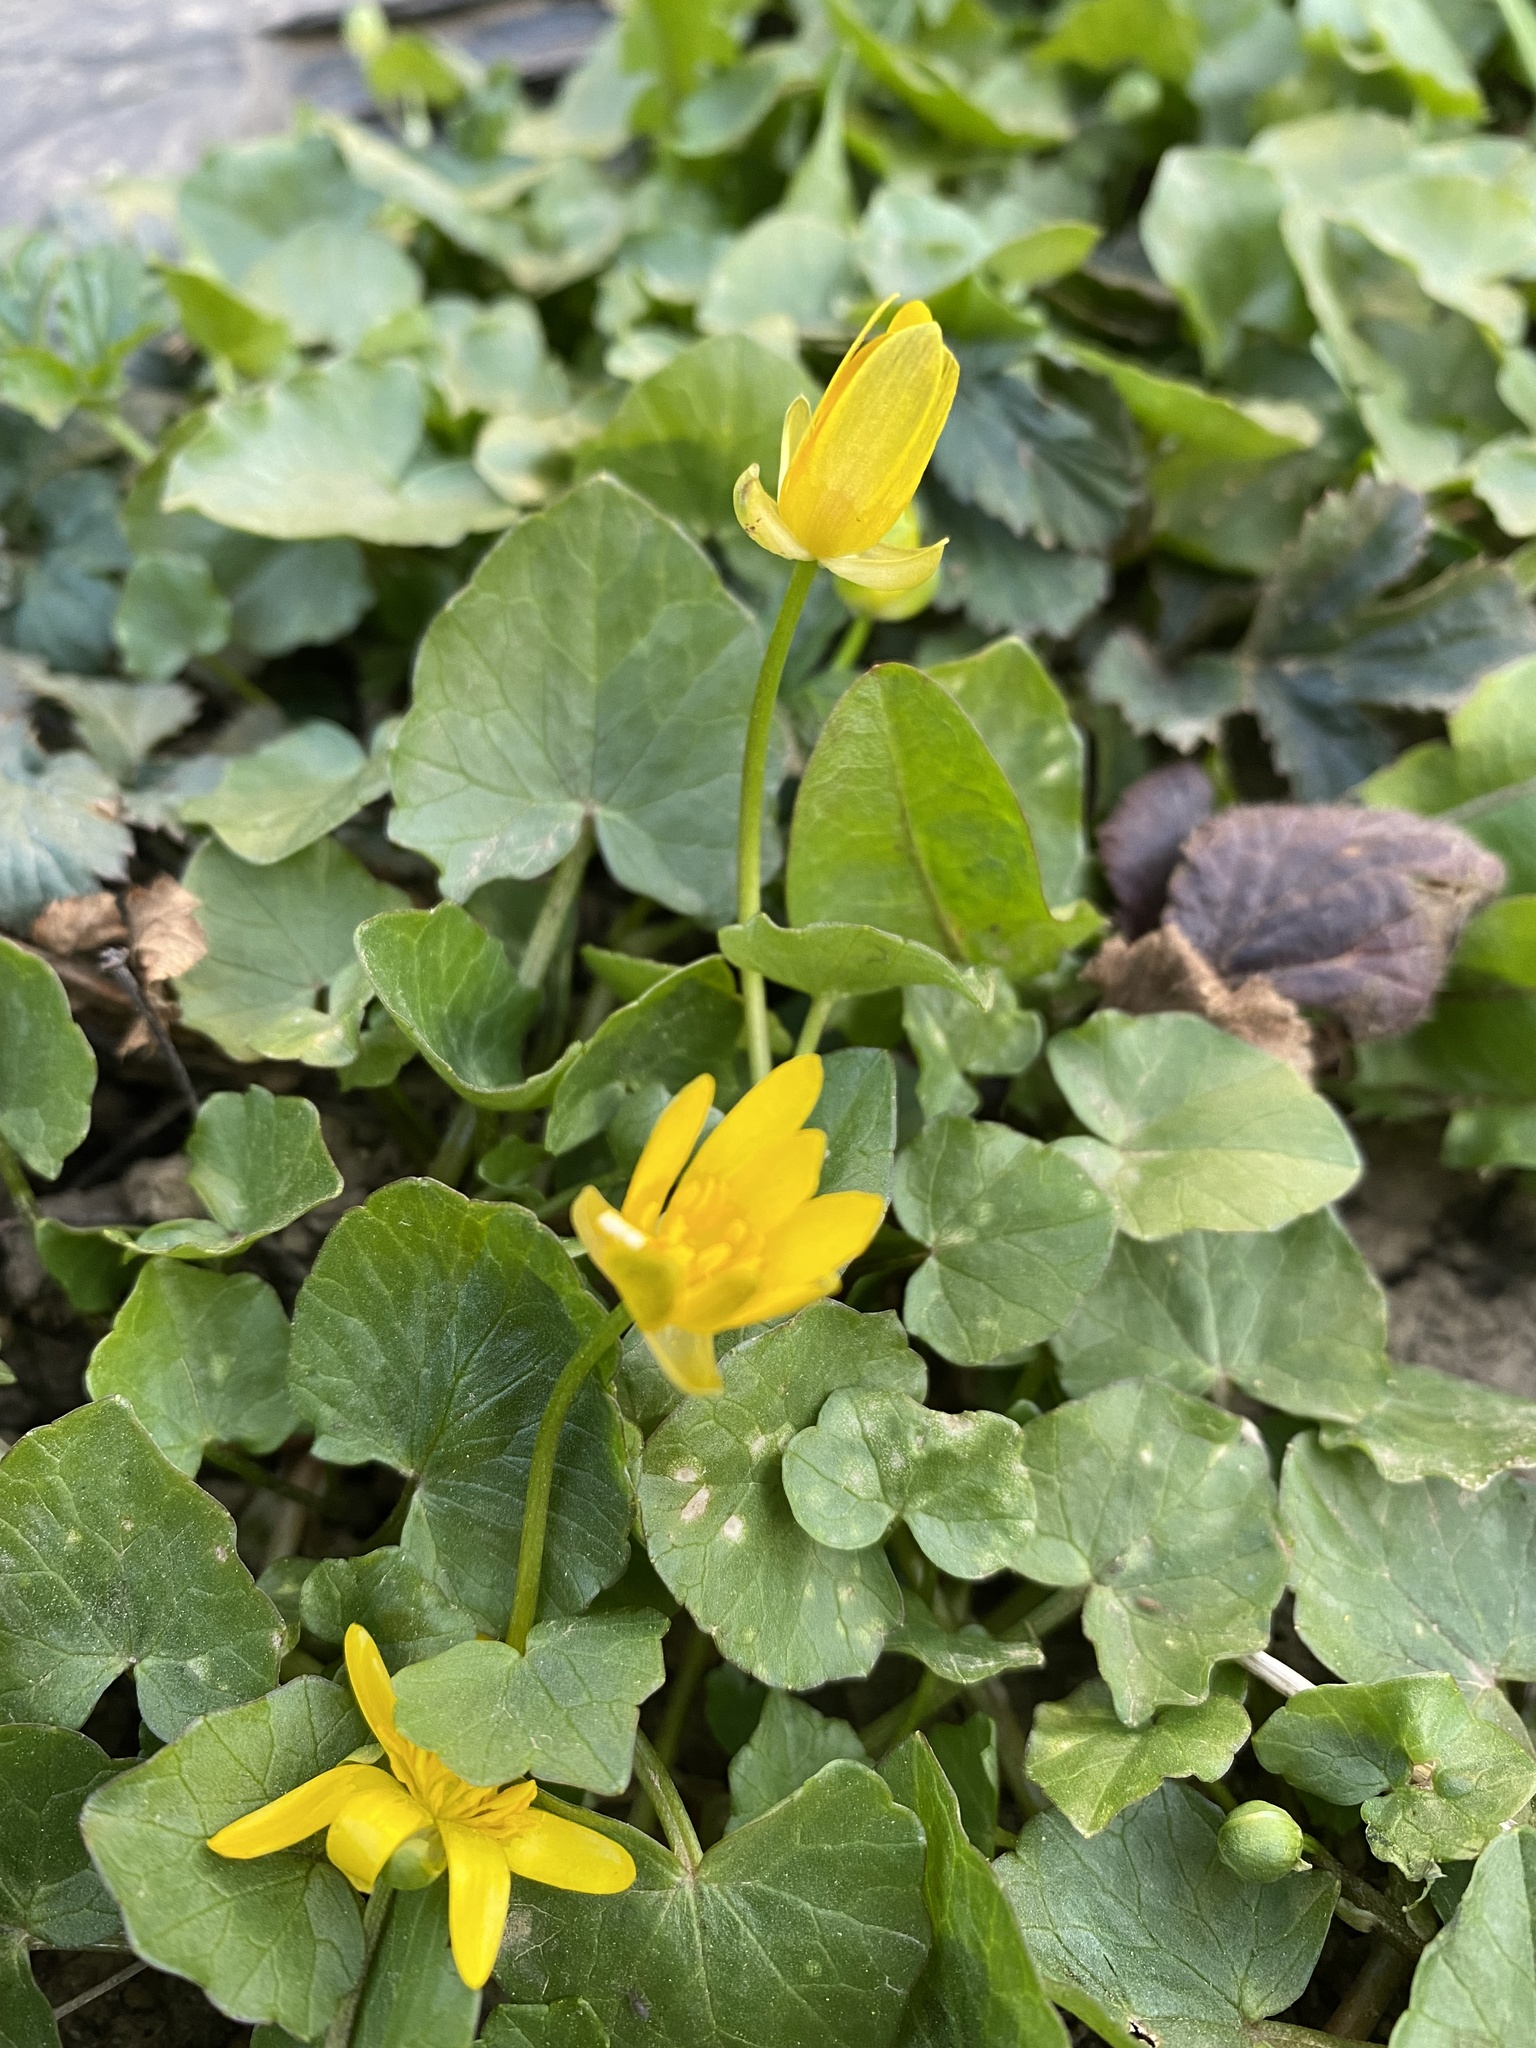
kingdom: Plantae
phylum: Tracheophyta
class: Magnoliopsida
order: Ranunculales
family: Ranunculaceae
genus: Ficaria
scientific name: Ficaria verna
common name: Lesser celandine
